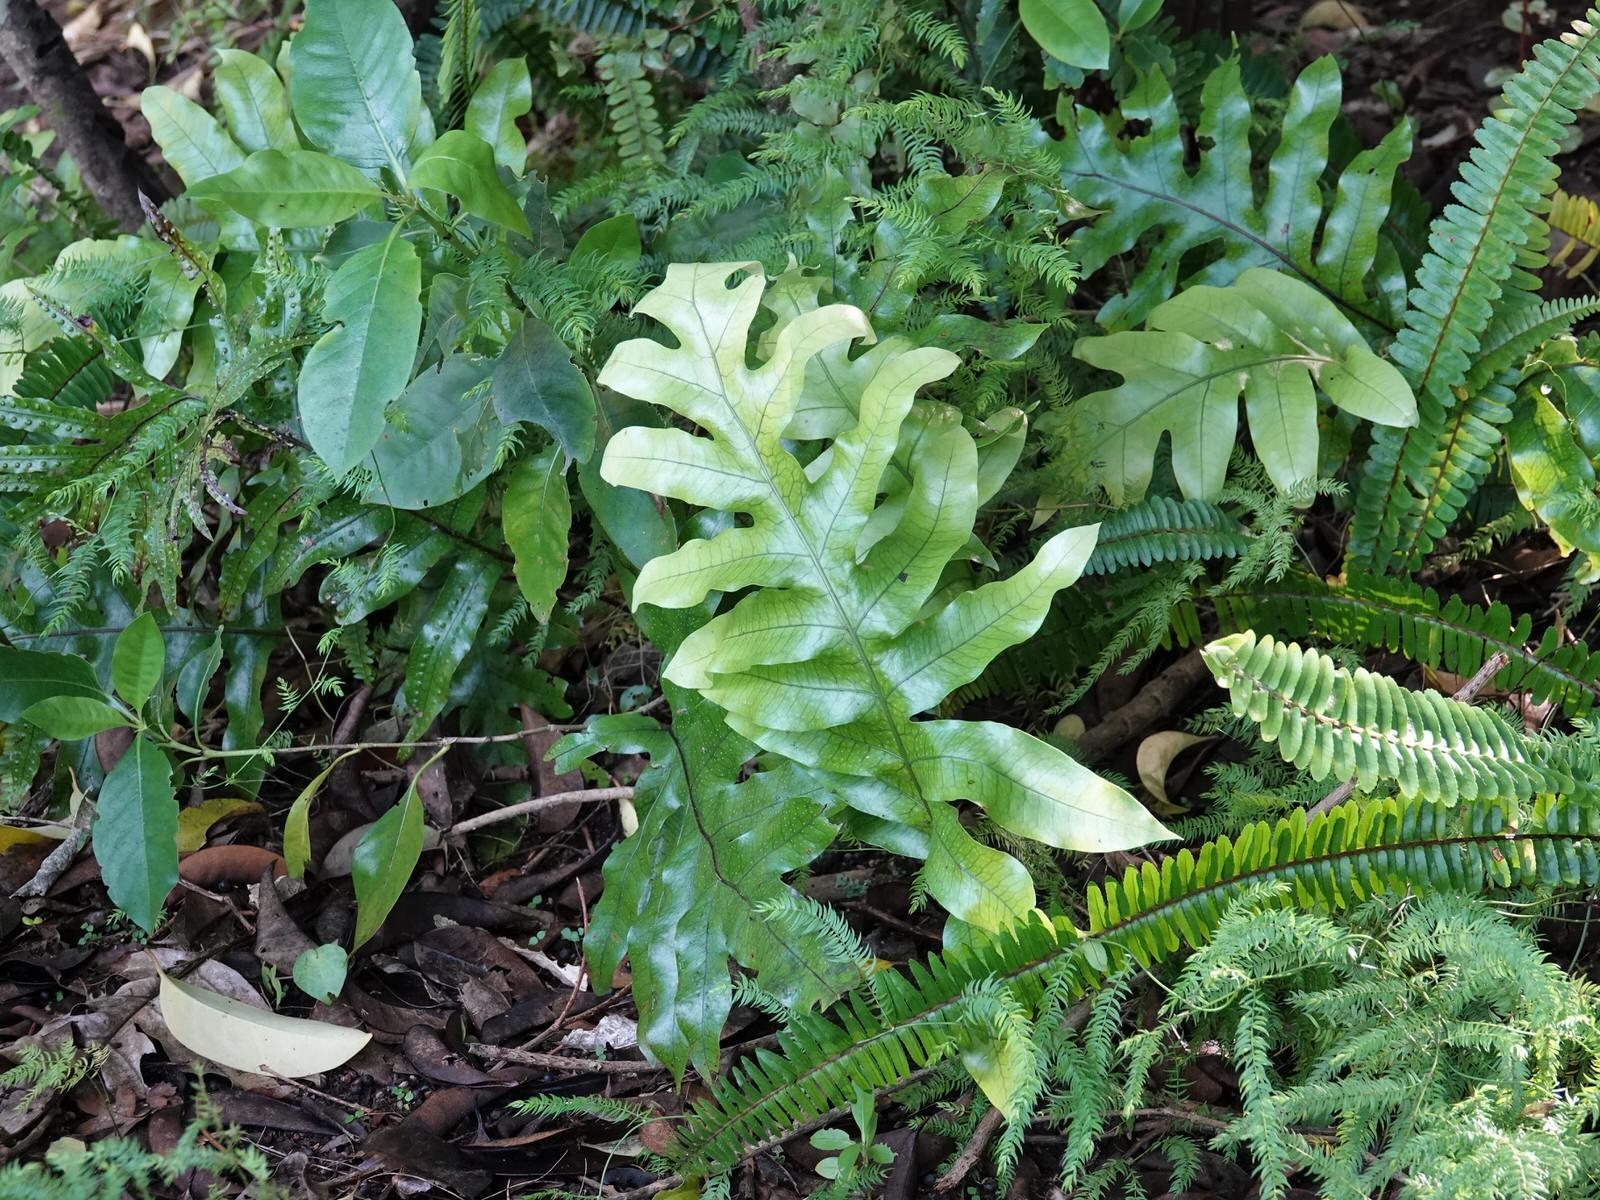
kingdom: Plantae
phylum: Tracheophyta
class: Polypodiopsida
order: Polypodiales
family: Polypodiaceae
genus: Lecanopteris
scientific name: Lecanopteris pustulata
